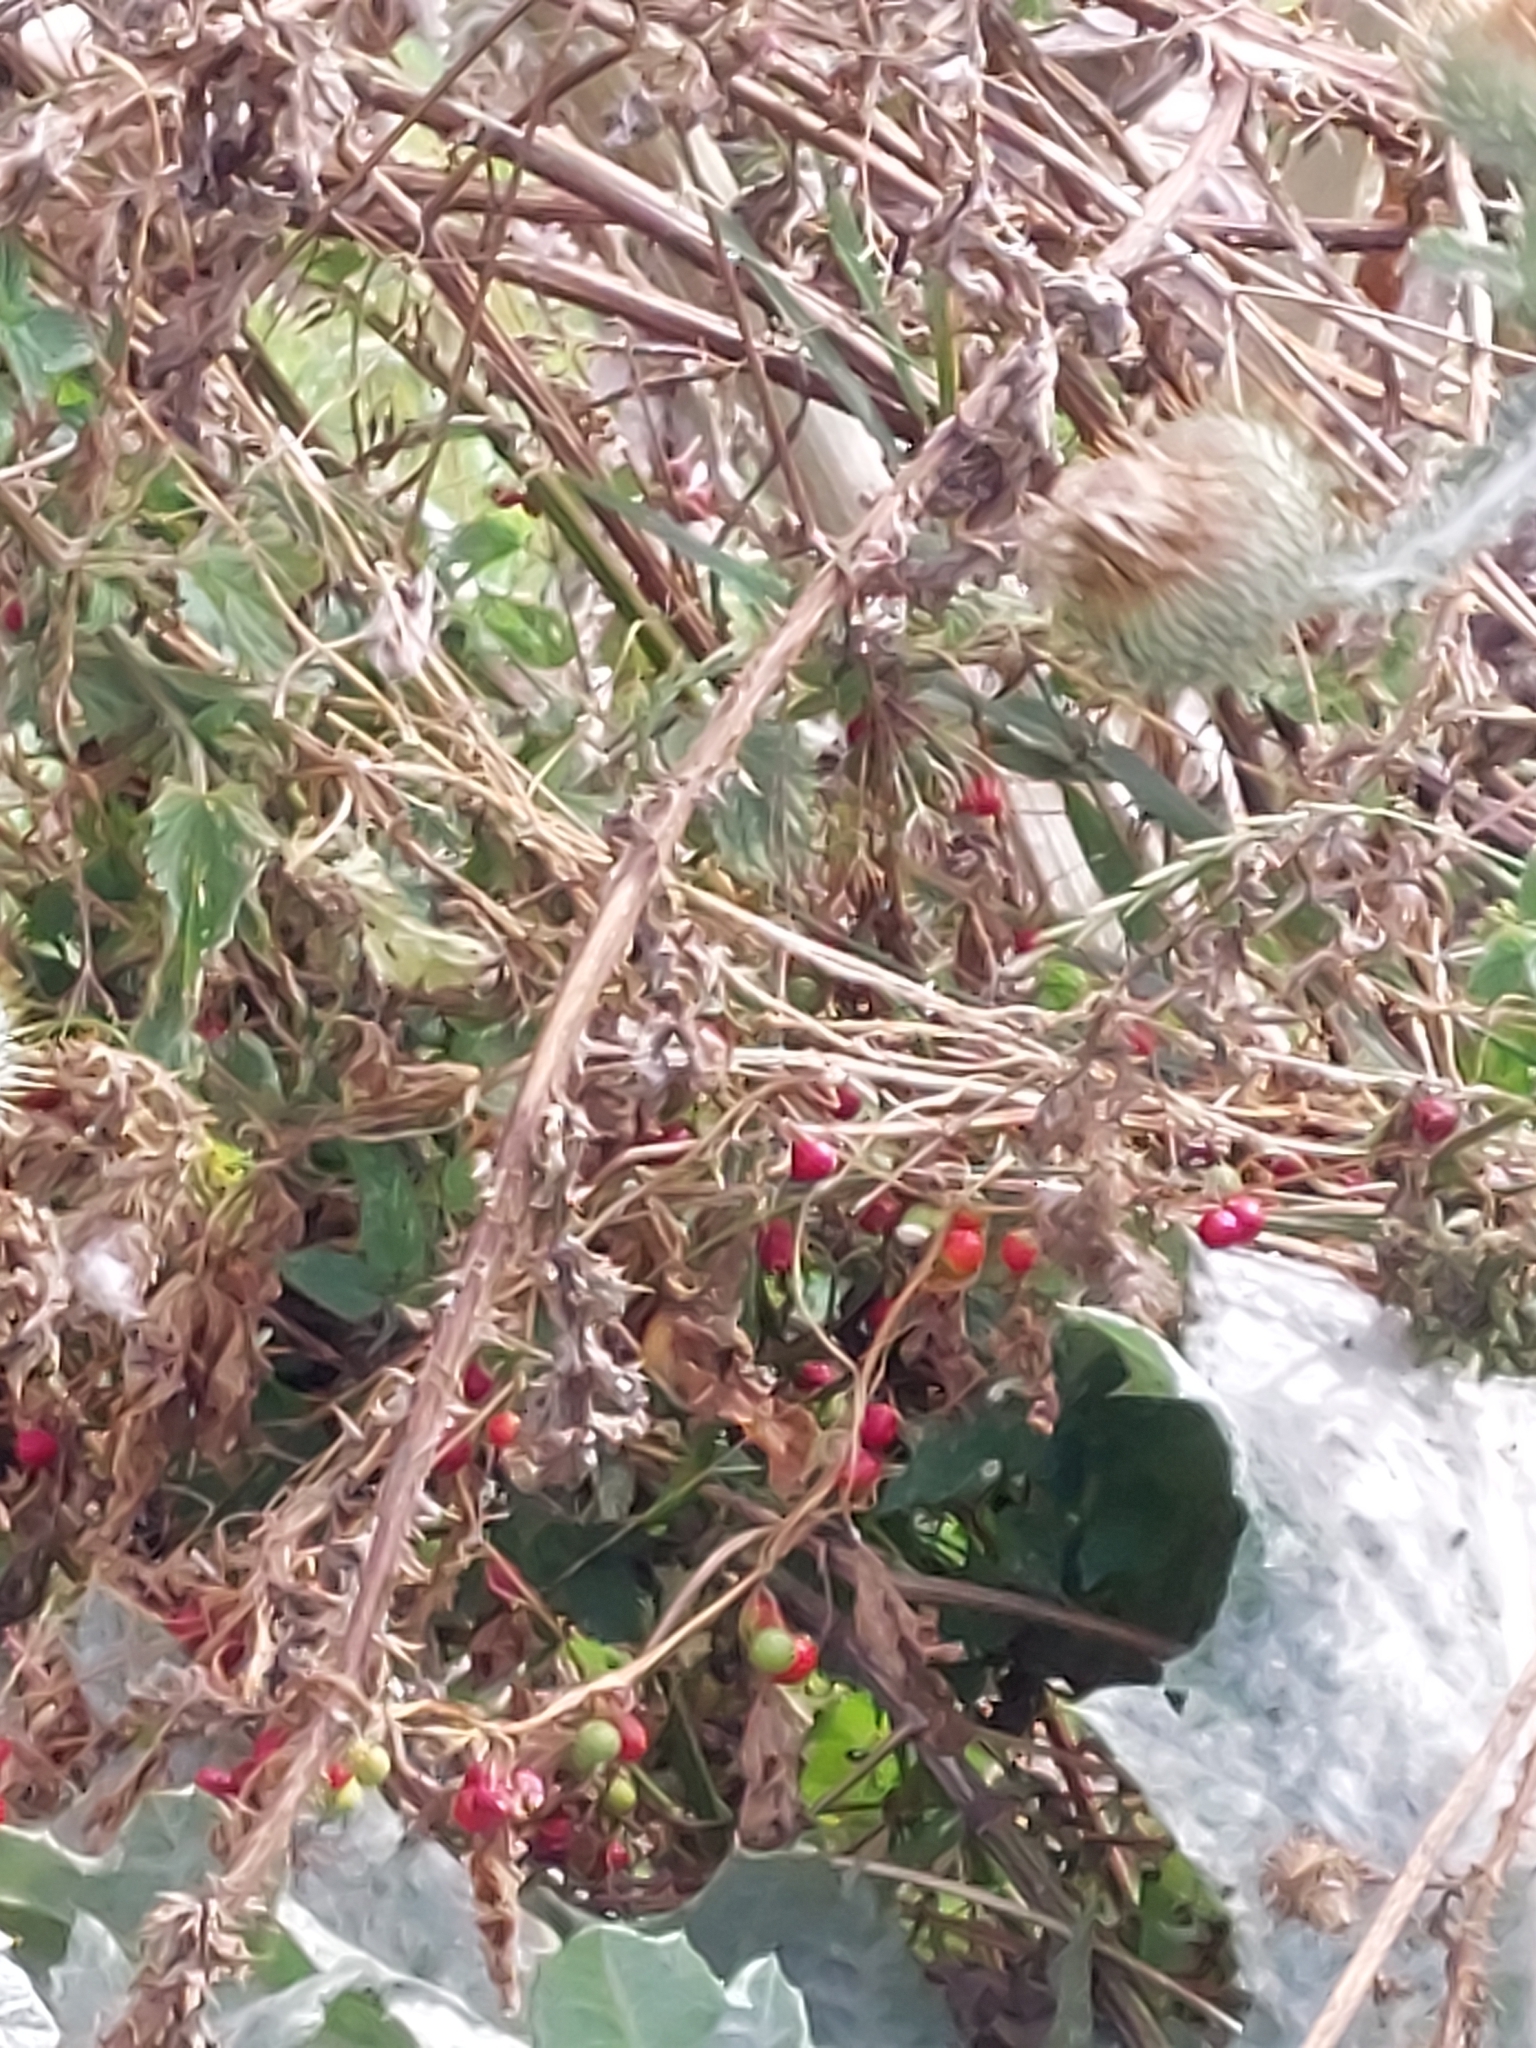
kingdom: Plantae
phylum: Tracheophyta
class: Magnoliopsida
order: Cucurbitales
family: Cucurbitaceae
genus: Bryonia
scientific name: Bryonia cretica
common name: Cretan bryony
